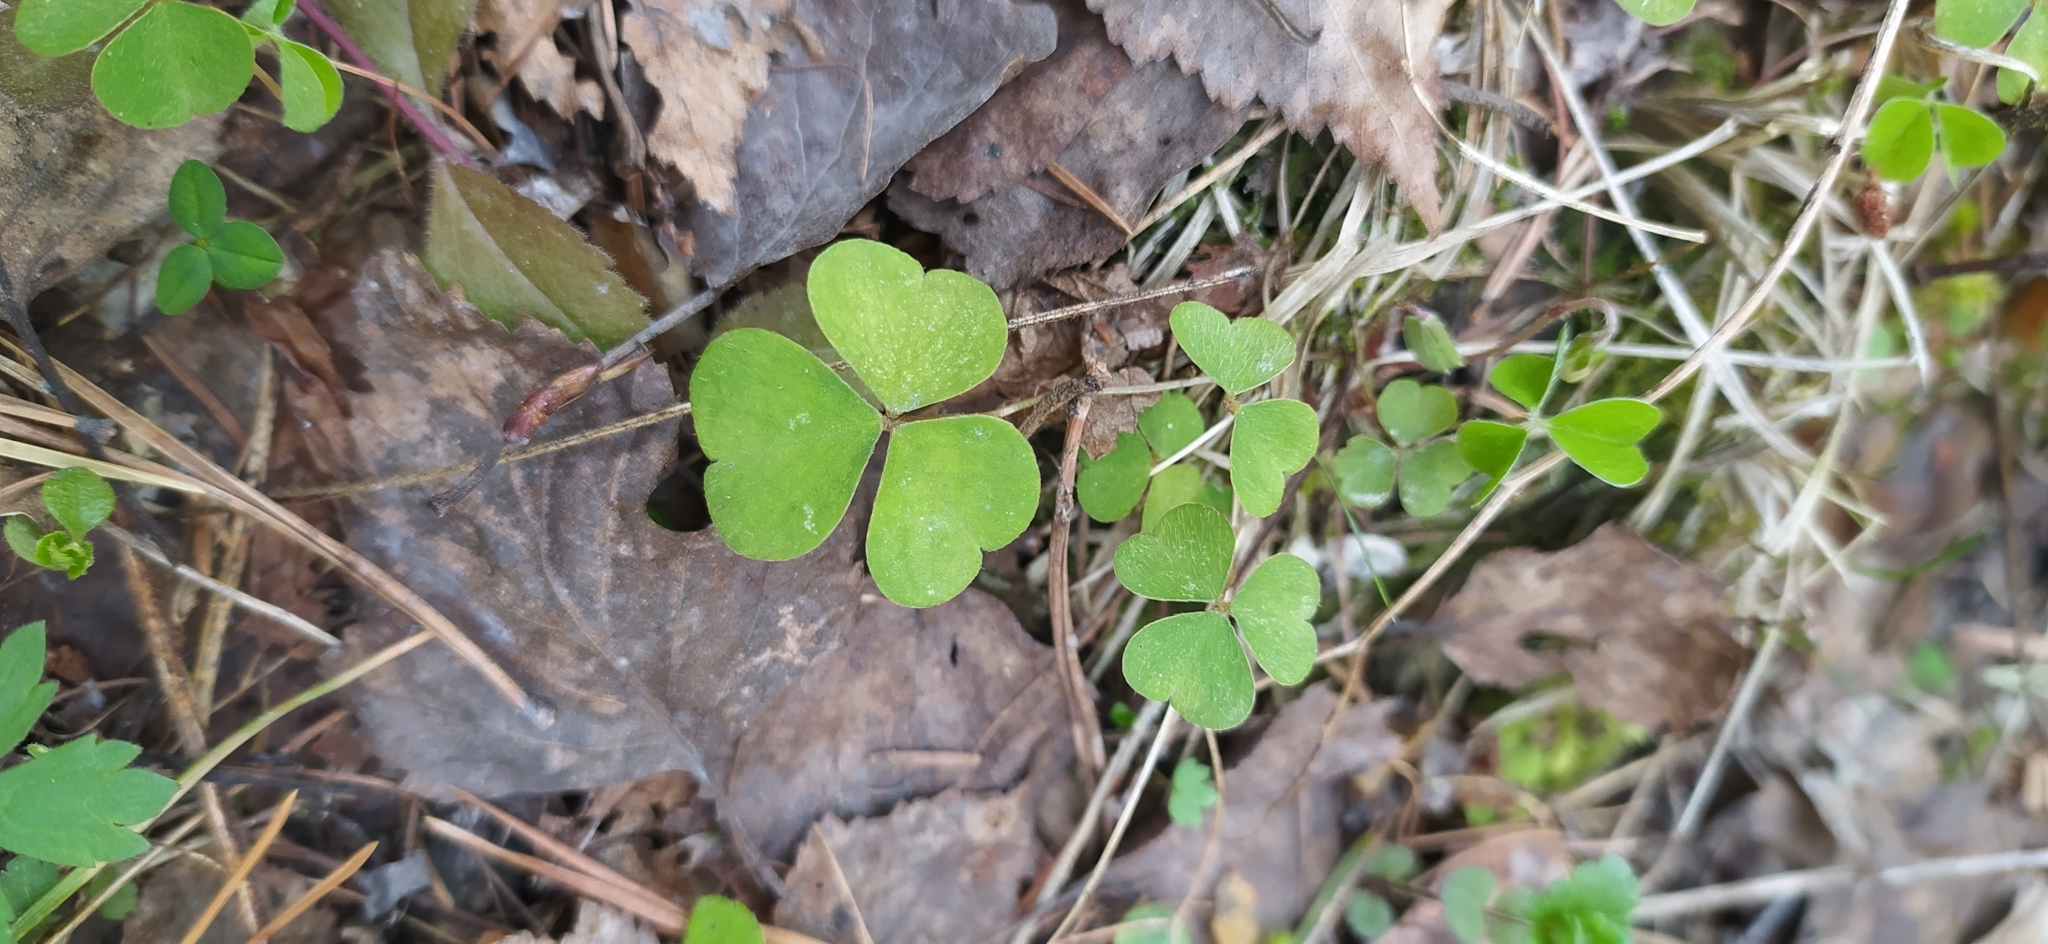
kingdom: Plantae
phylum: Tracheophyta
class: Magnoliopsida
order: Oxalidales
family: Oxalidaceae
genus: Oxalis
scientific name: Oxalis acetosella
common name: Wood-sorrel
